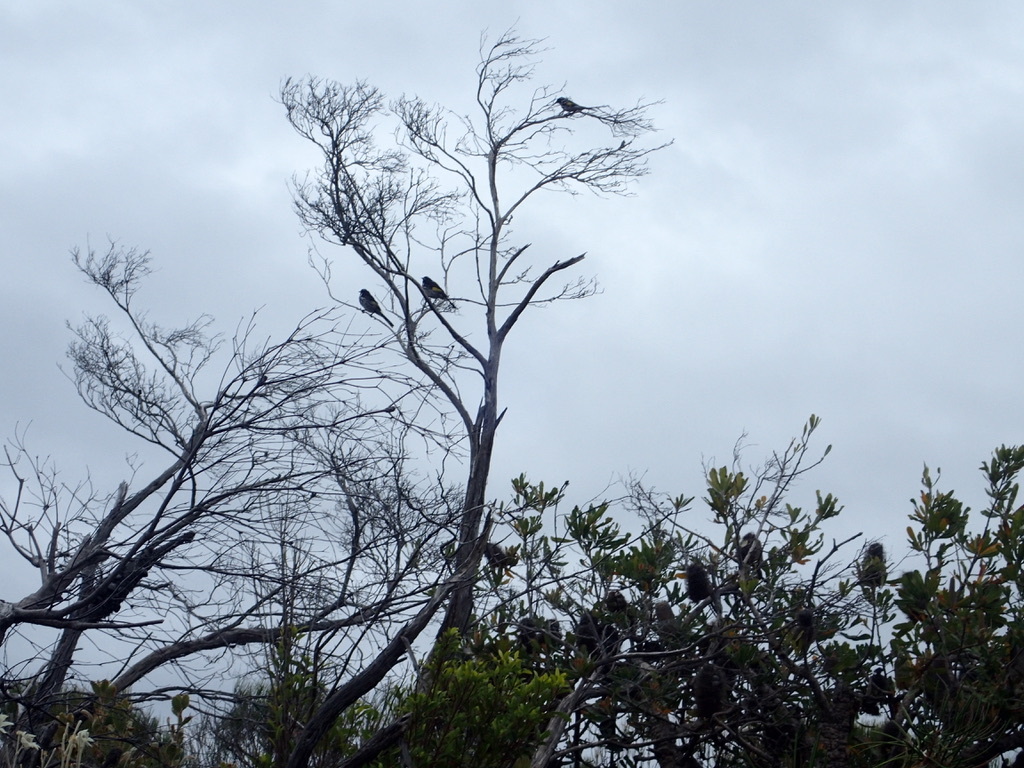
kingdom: Animalia
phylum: Chordata
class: Aves
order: Passeriformes
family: Meliphagidae
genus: Phylidonyris
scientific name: Phylidonyris novaehollandiae
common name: New holland honeyeater
